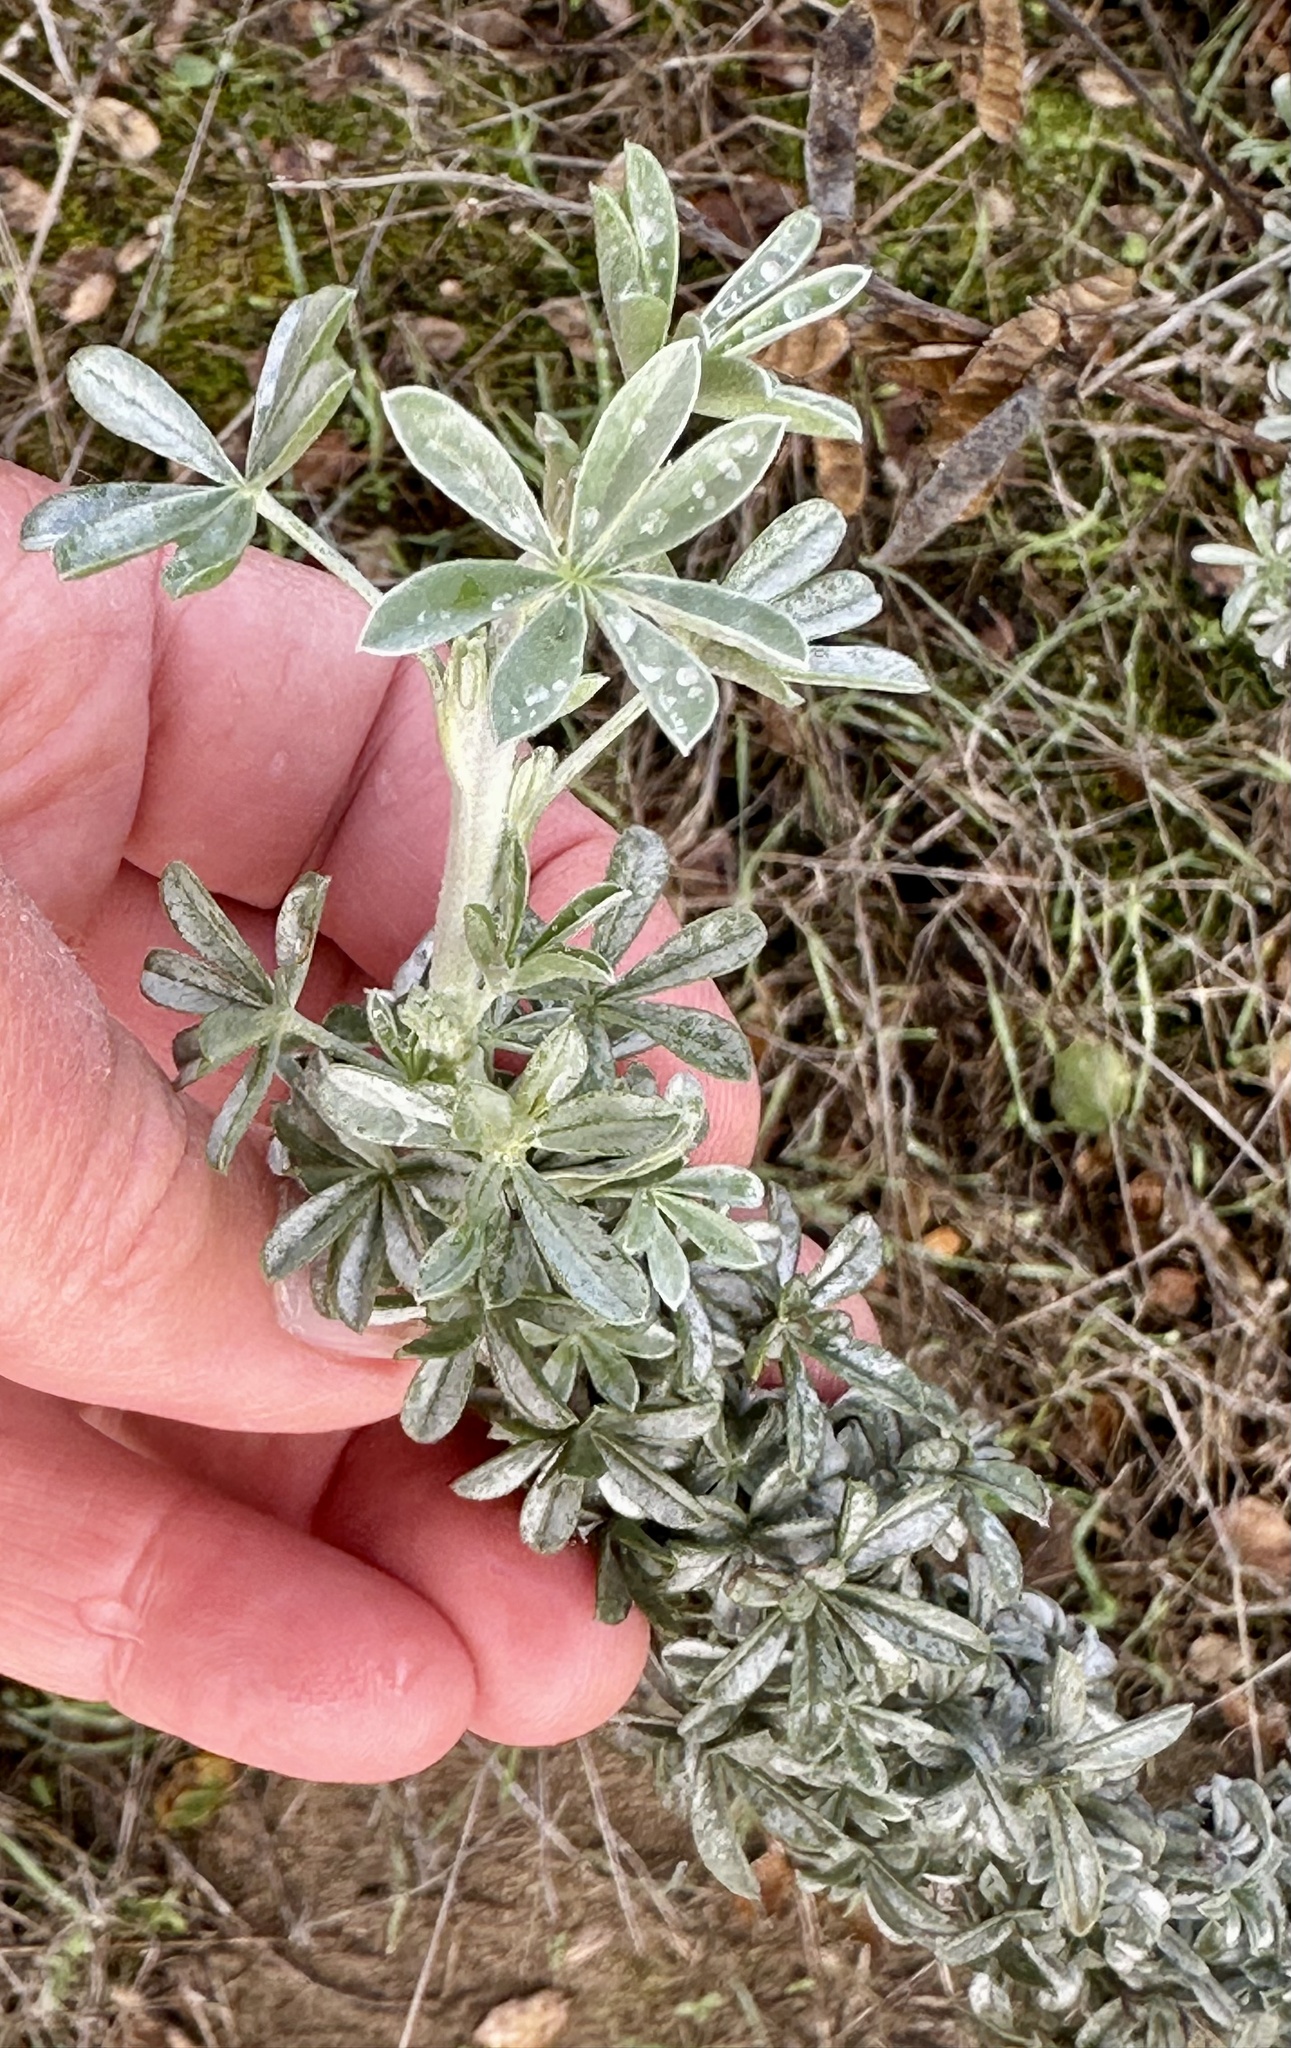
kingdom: Plantae
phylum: Tracheophyta
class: Magnoliopsida
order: Fabales
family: Fabaceae
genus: Lupinus
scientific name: Lupinus chamissonis
